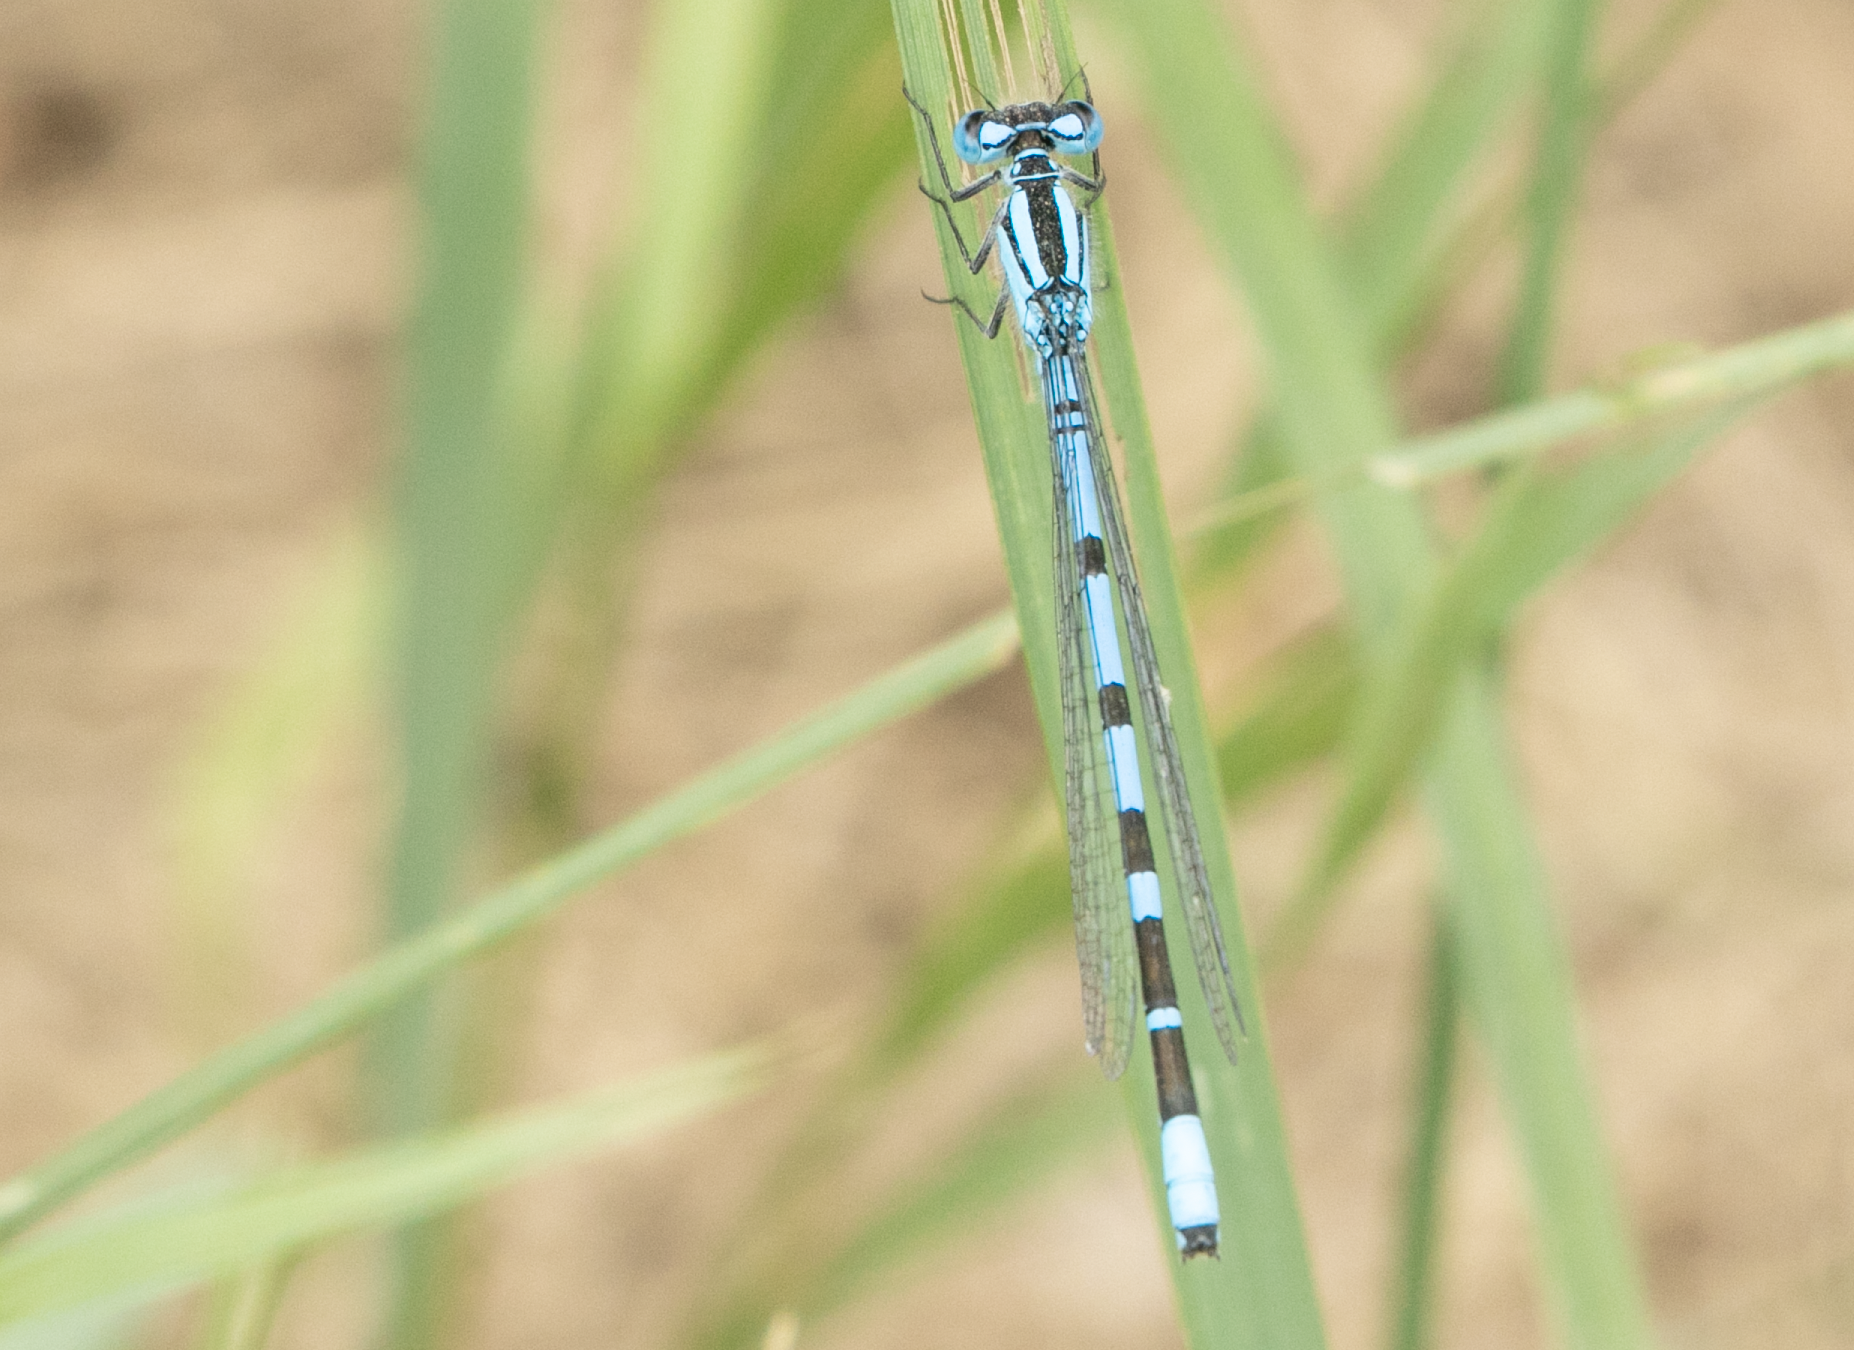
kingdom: Animalia
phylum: Arthropoda
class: Insecta
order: Odonata
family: Coenagrionidae
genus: Enallagma
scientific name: Enallagma cyathigerum
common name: Common blue damselfly
